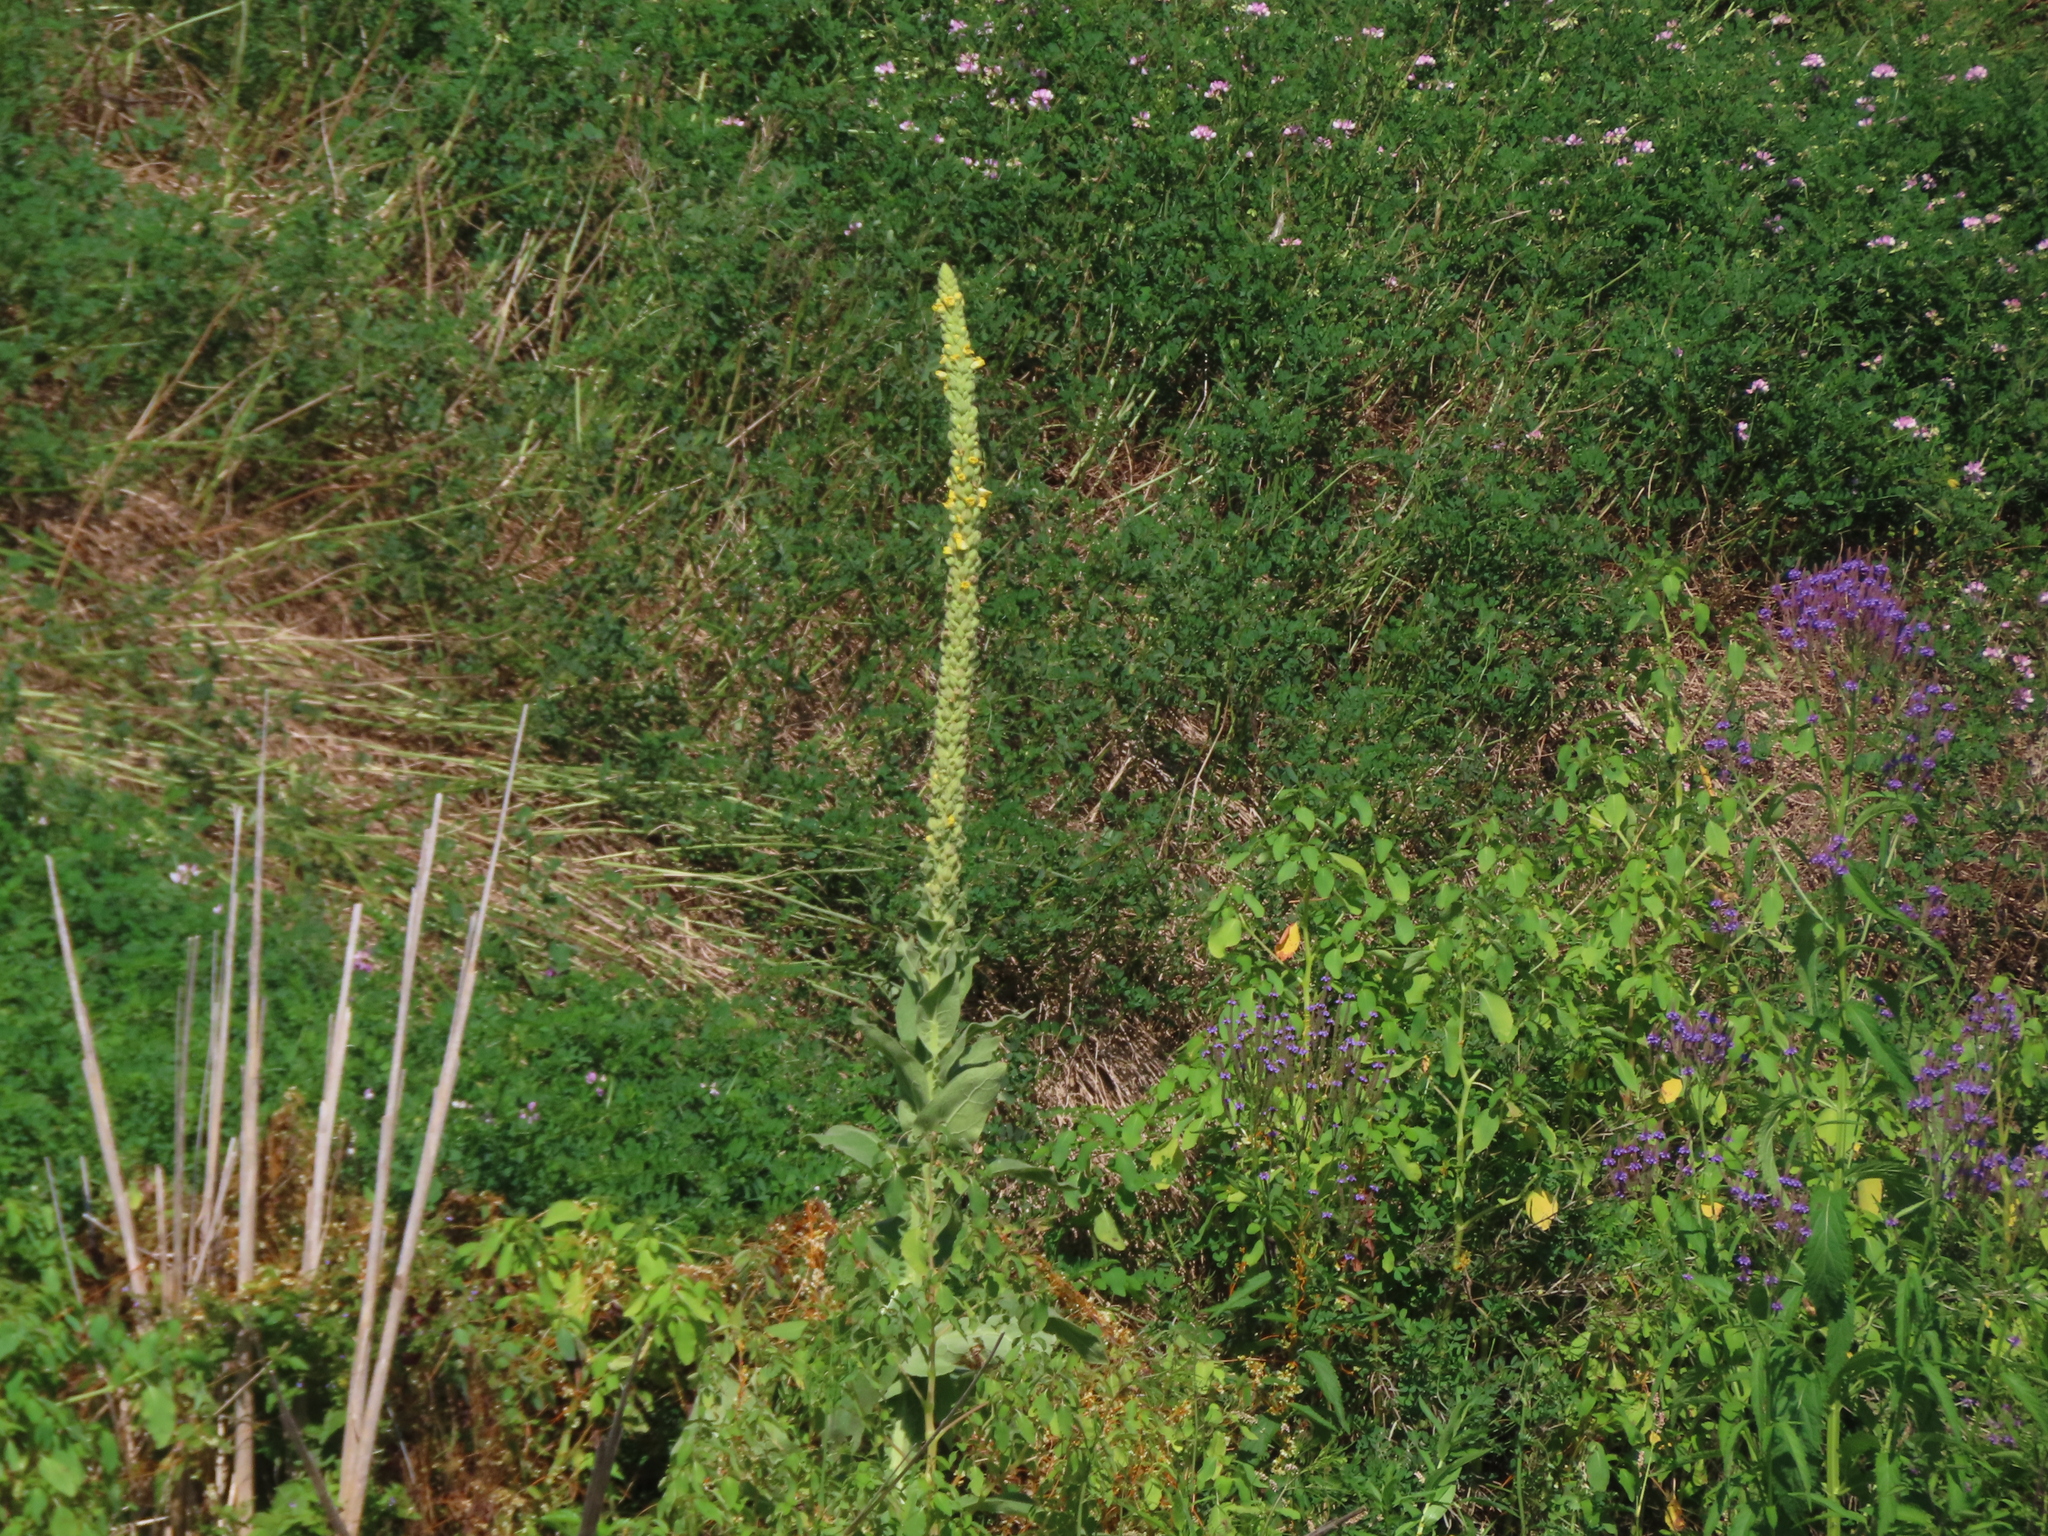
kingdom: Plantae
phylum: Tracheophyta
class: Magnoliopsida
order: Lamiales
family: Scrophulariaceae
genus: Verbascum
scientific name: Verbascum thapsus
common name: Common mullein
